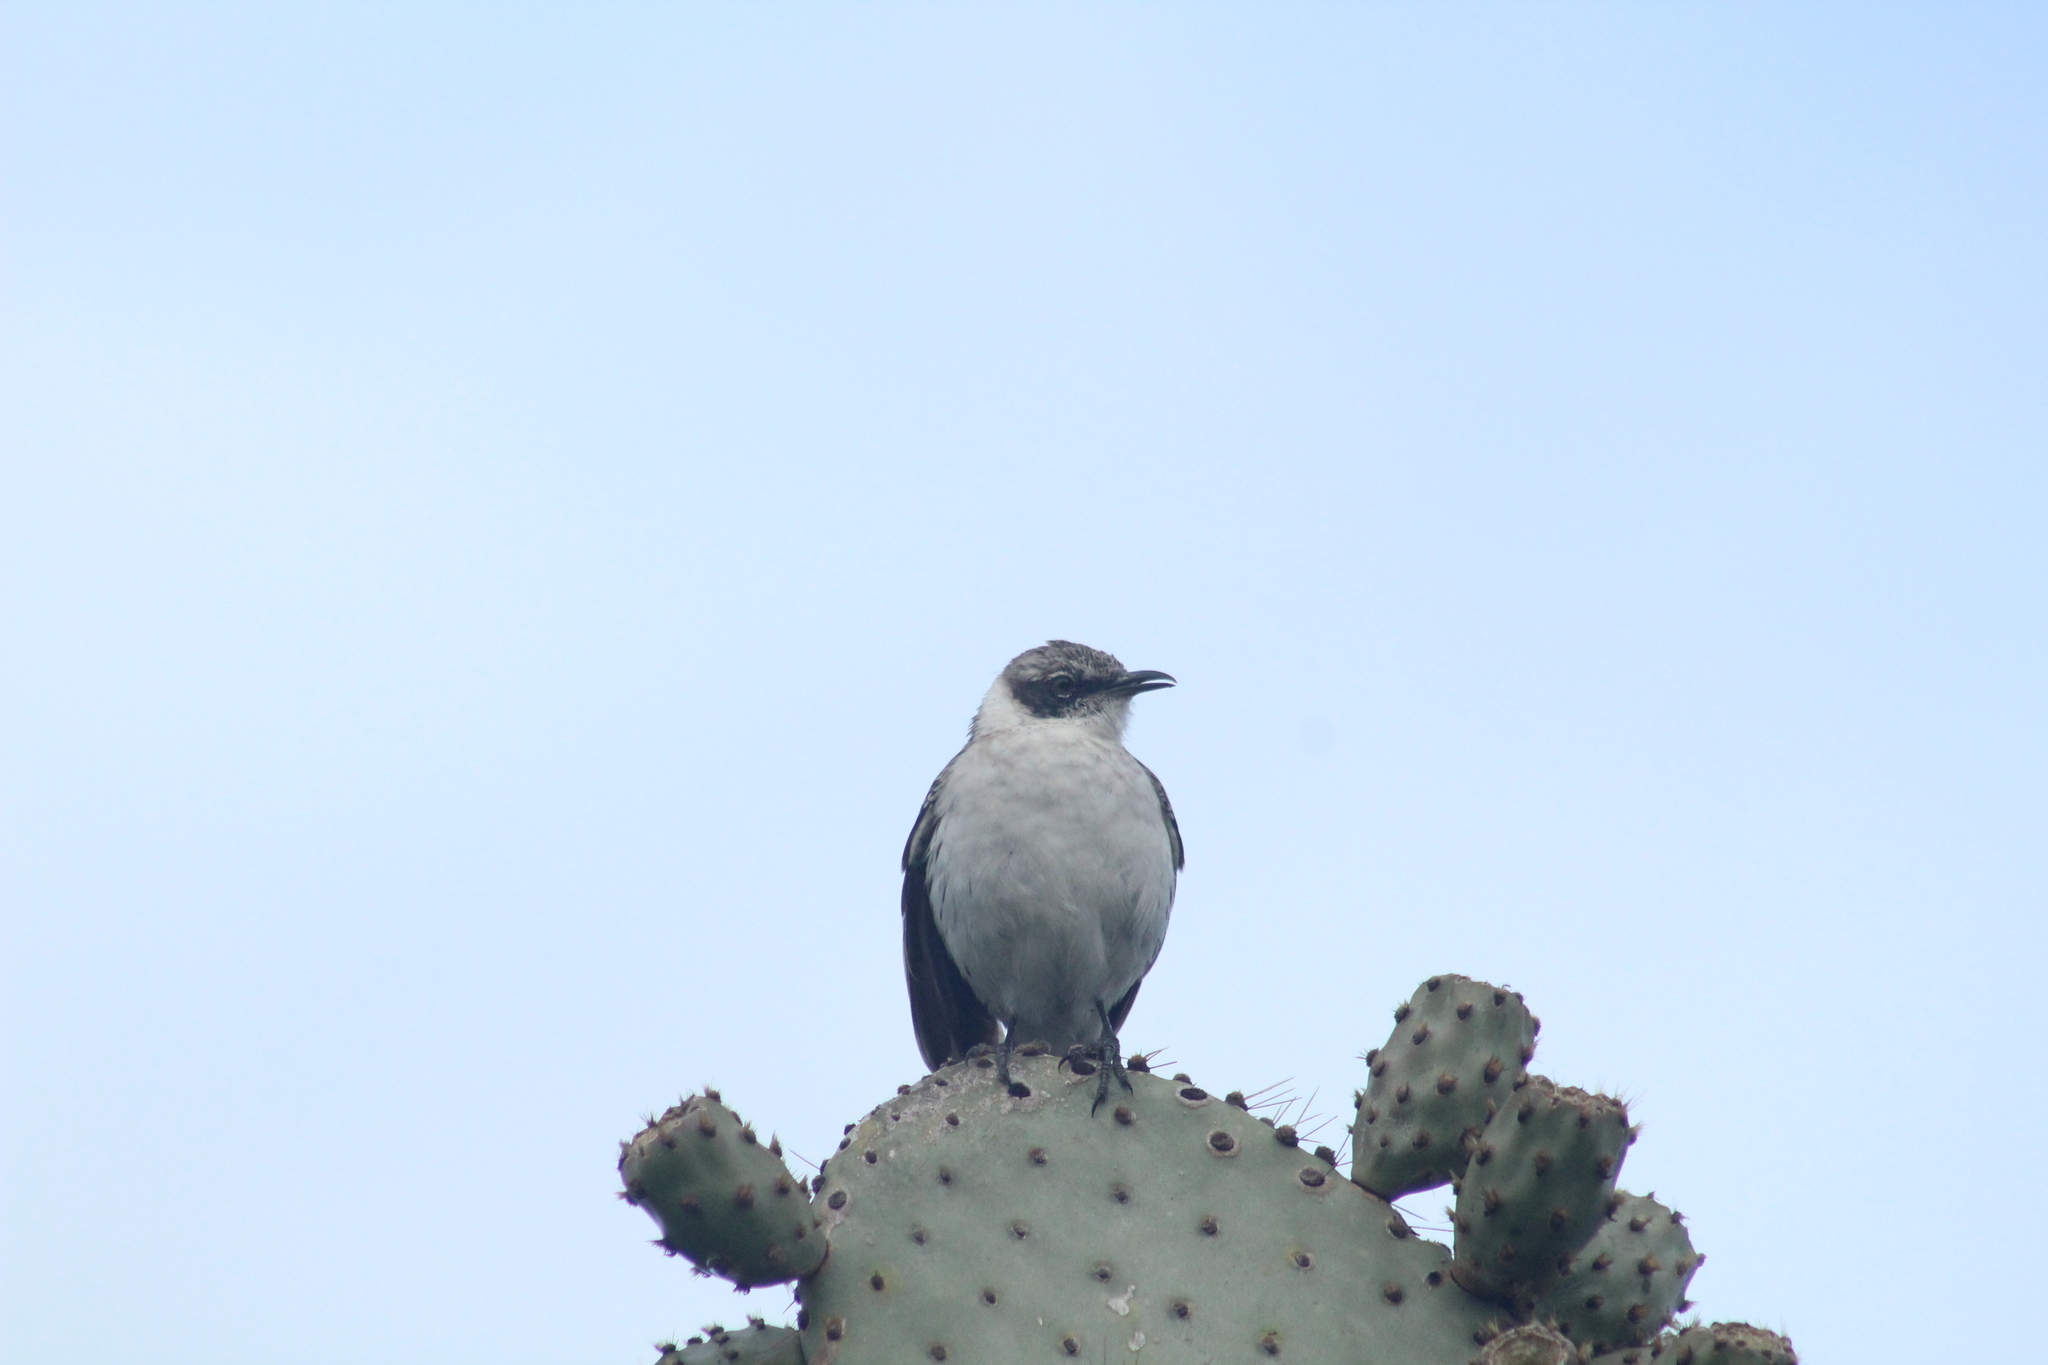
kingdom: Animalia
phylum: Chordata
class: Aves
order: Passeriformes
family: Mimidae
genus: Mimus
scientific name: Mimus parvulus
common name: Galapagos mockingbird
